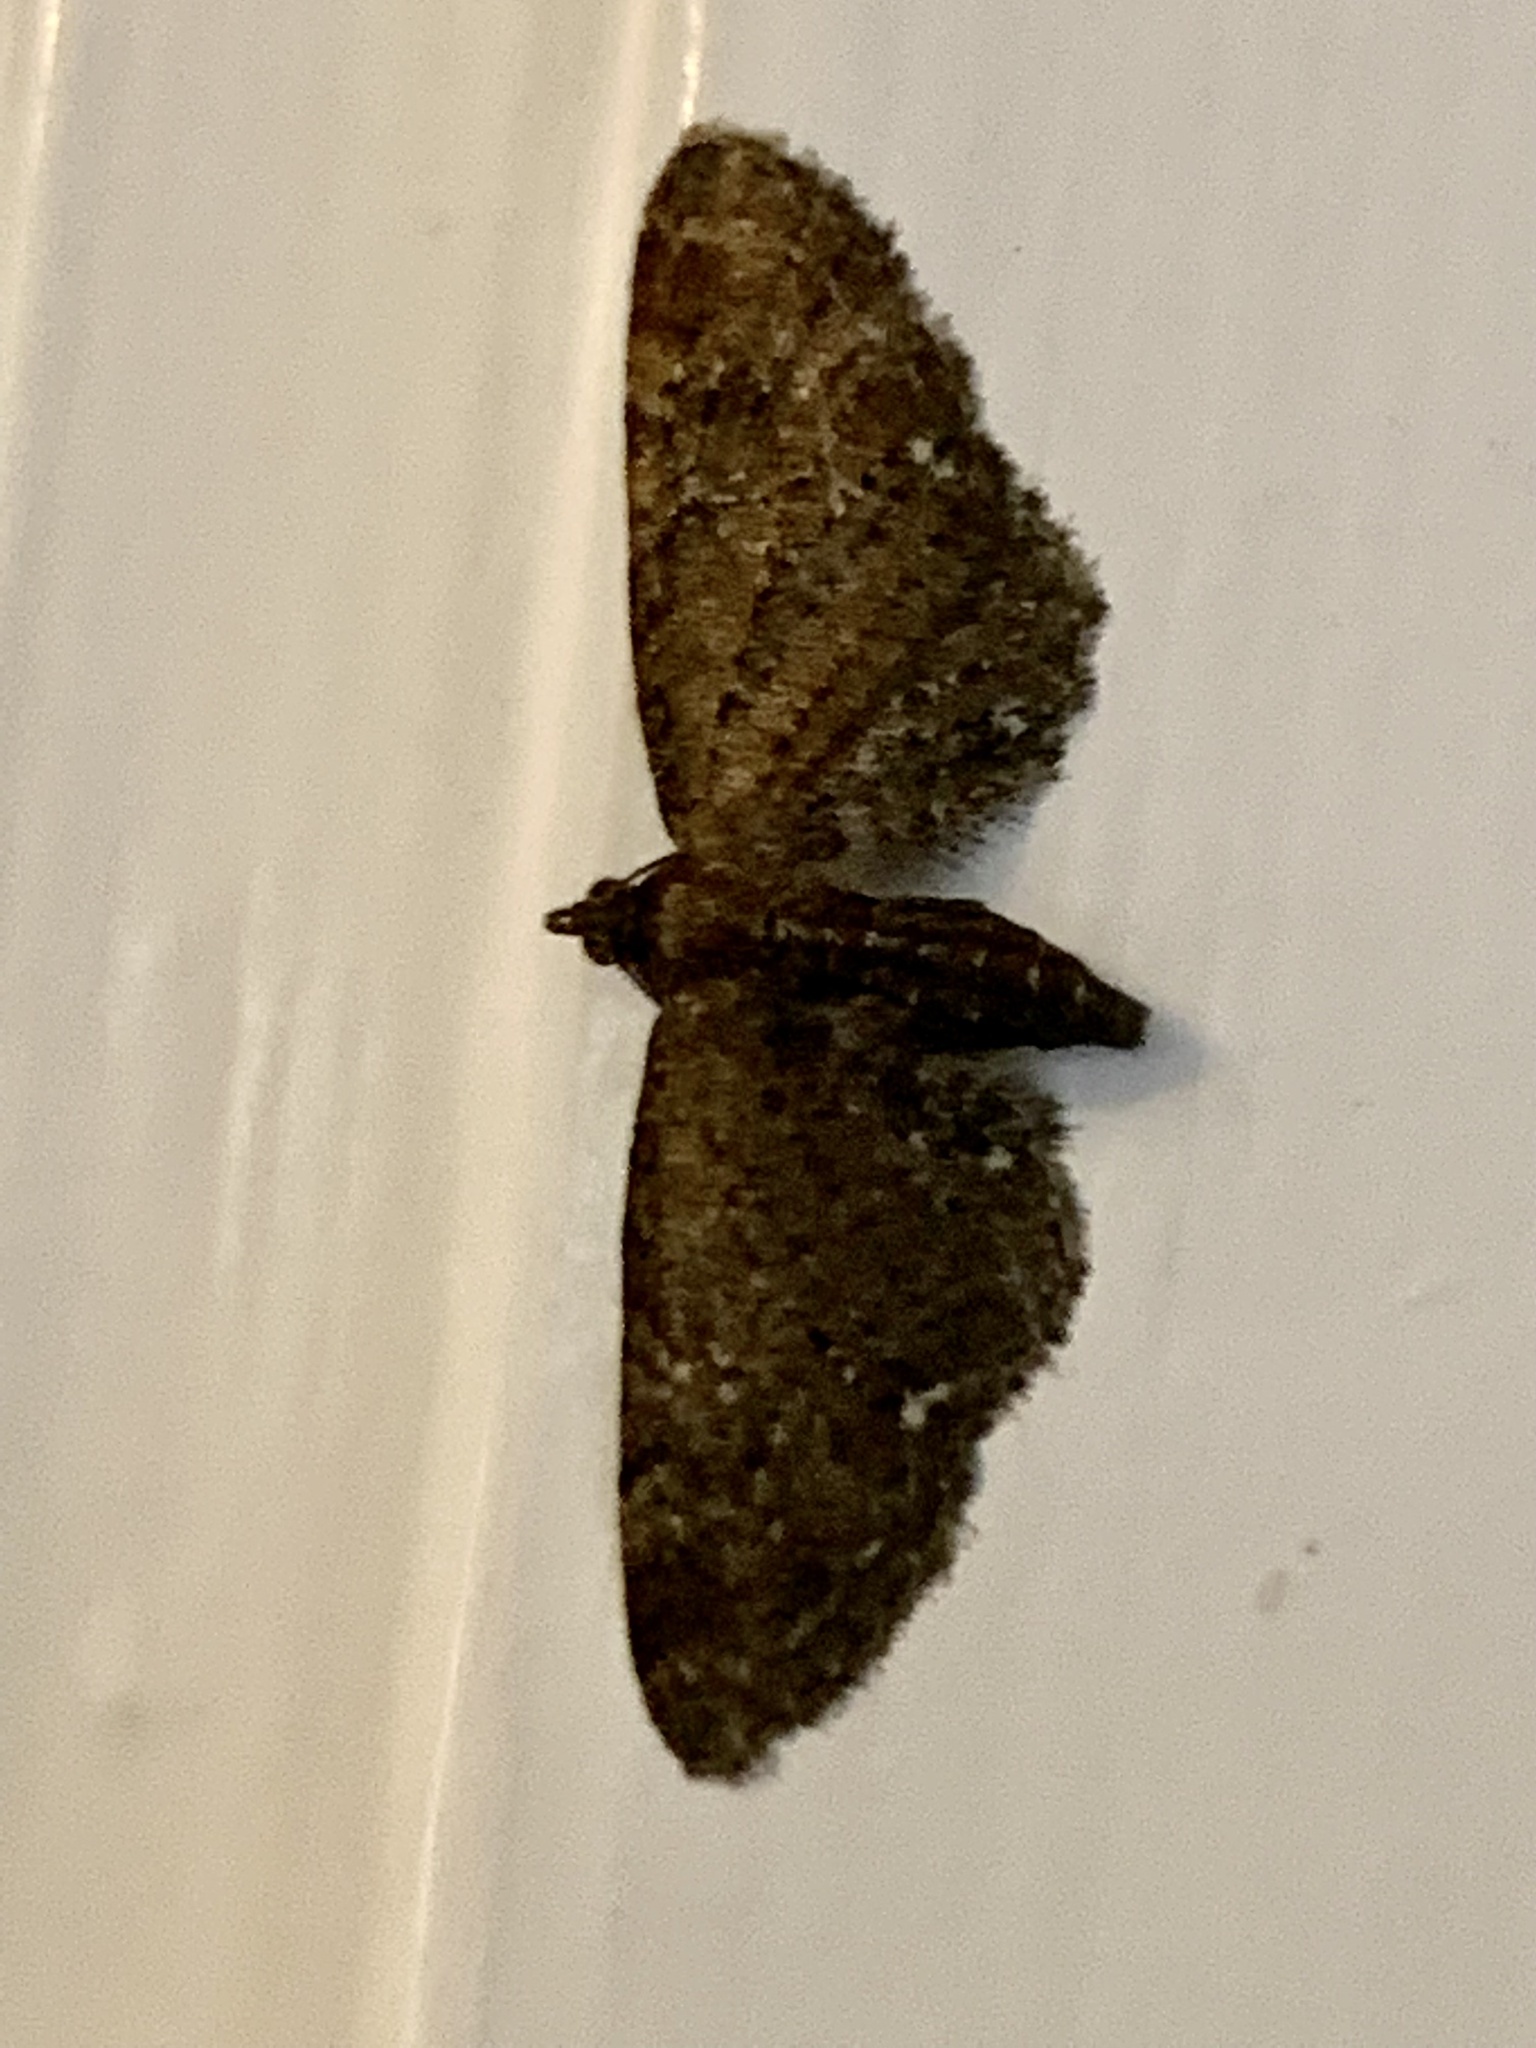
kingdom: Animalia
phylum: Arthropoda
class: Insecta
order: Lepidoptera
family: Geometridae
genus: Eupithecia
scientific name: Eupithecia vulgata
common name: Common pug
